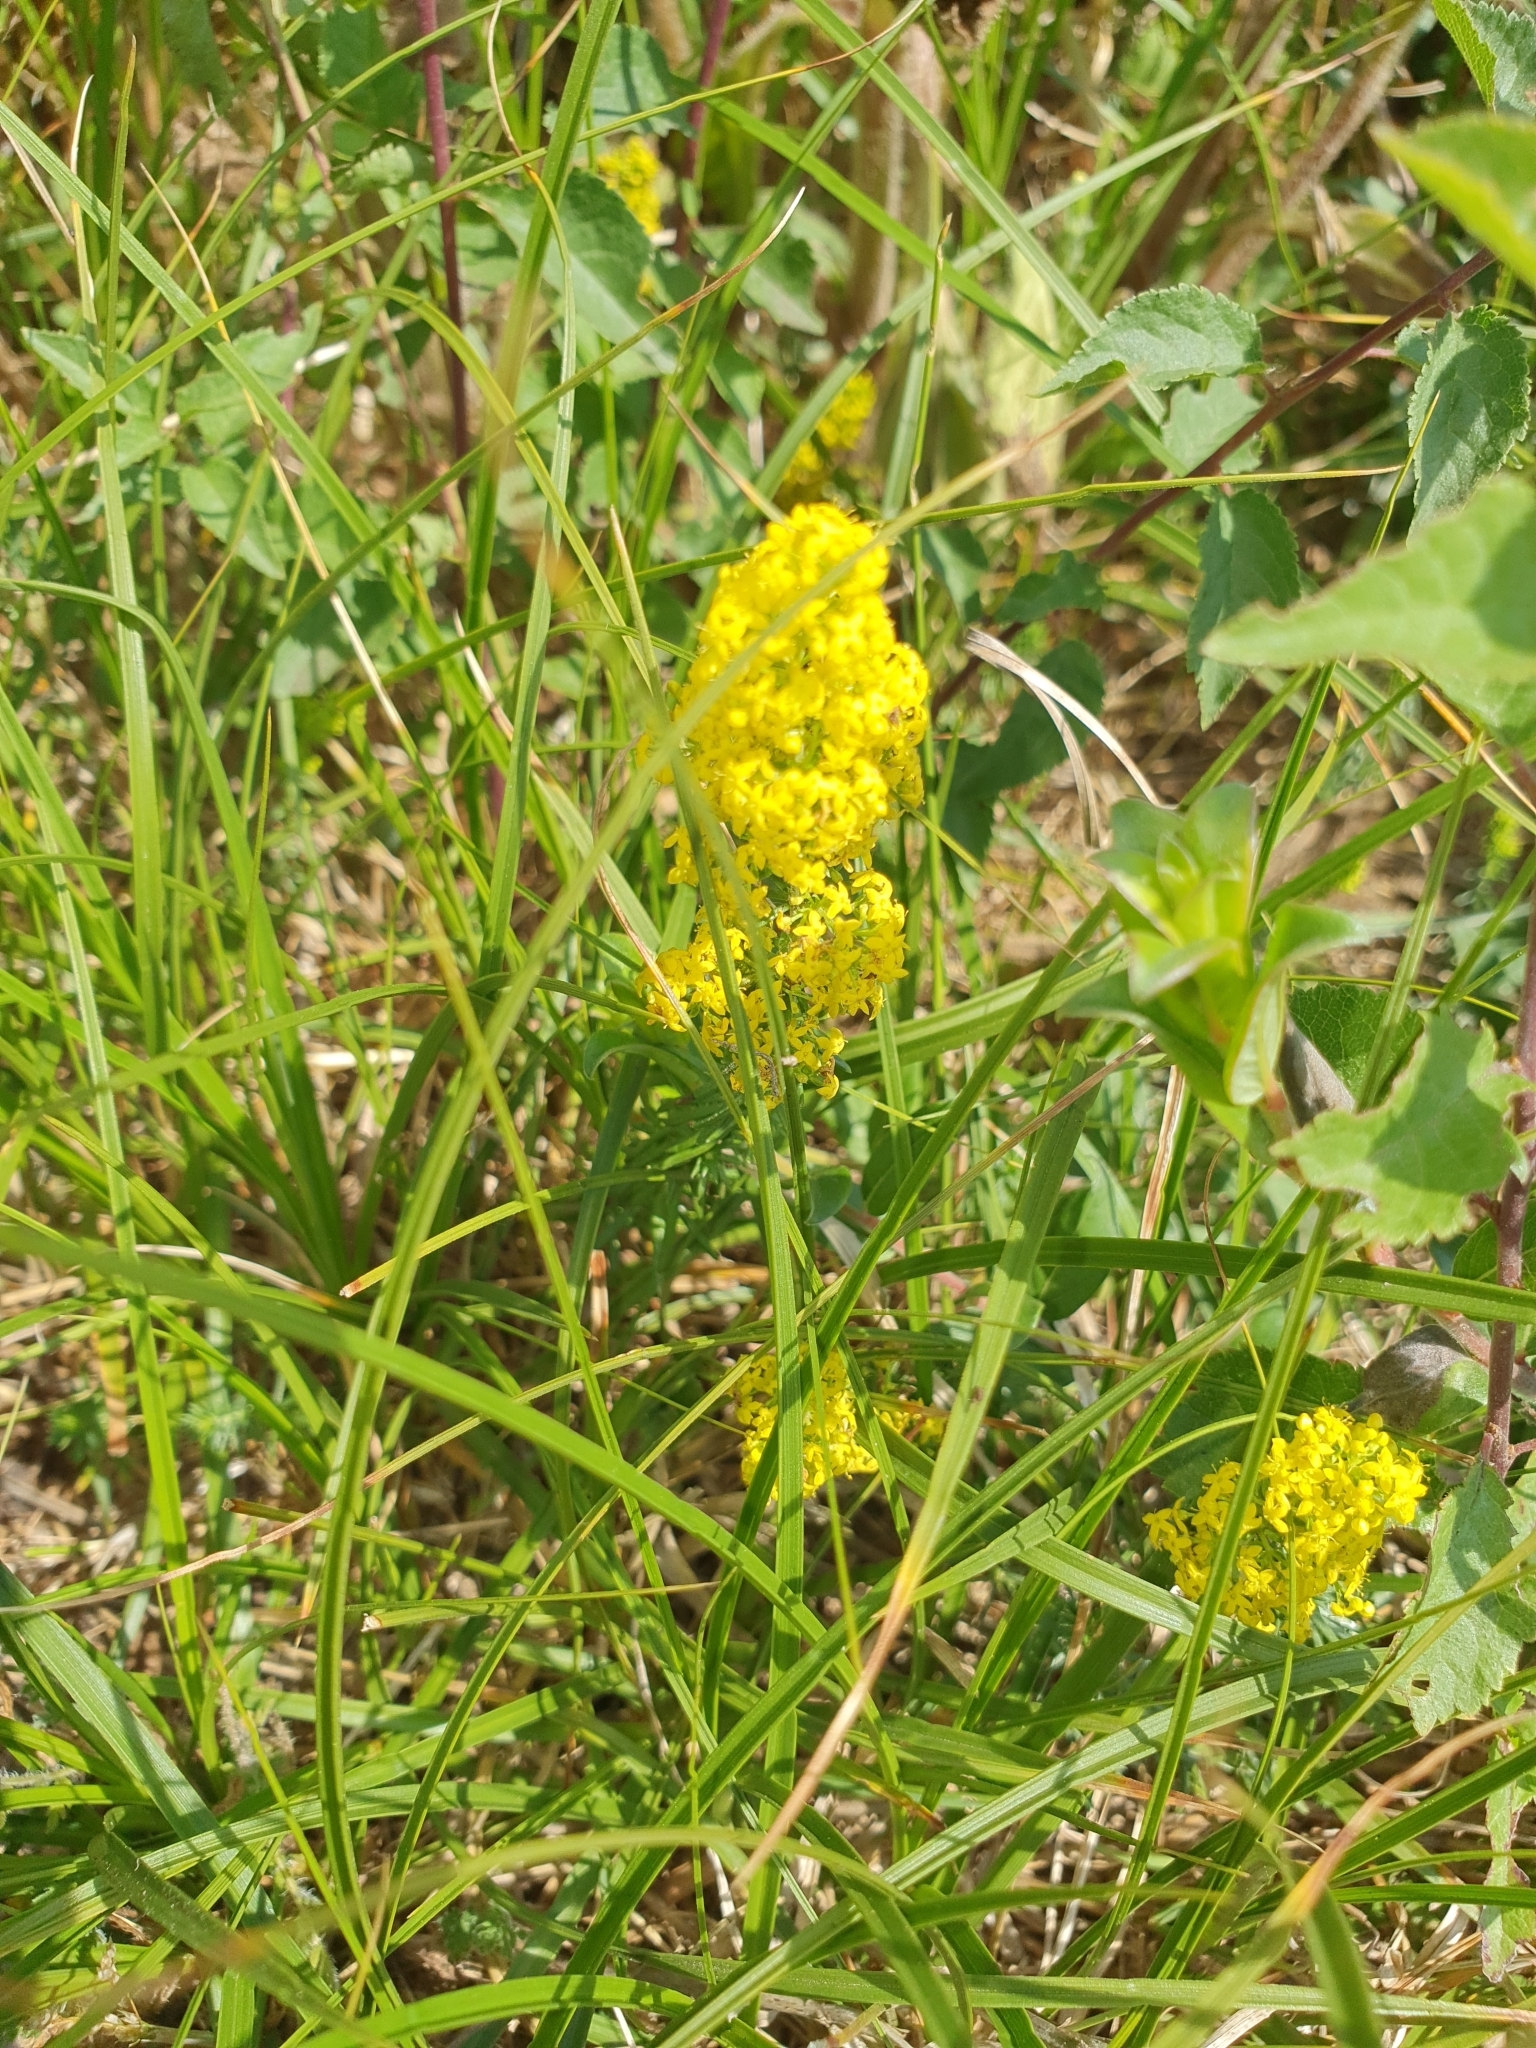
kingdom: Plantae
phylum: Tracheophyta
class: Magnoliopsida
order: Gentianales
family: Rubiaceae
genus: Galium
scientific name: Galium verum
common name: Lady's bedstraw
